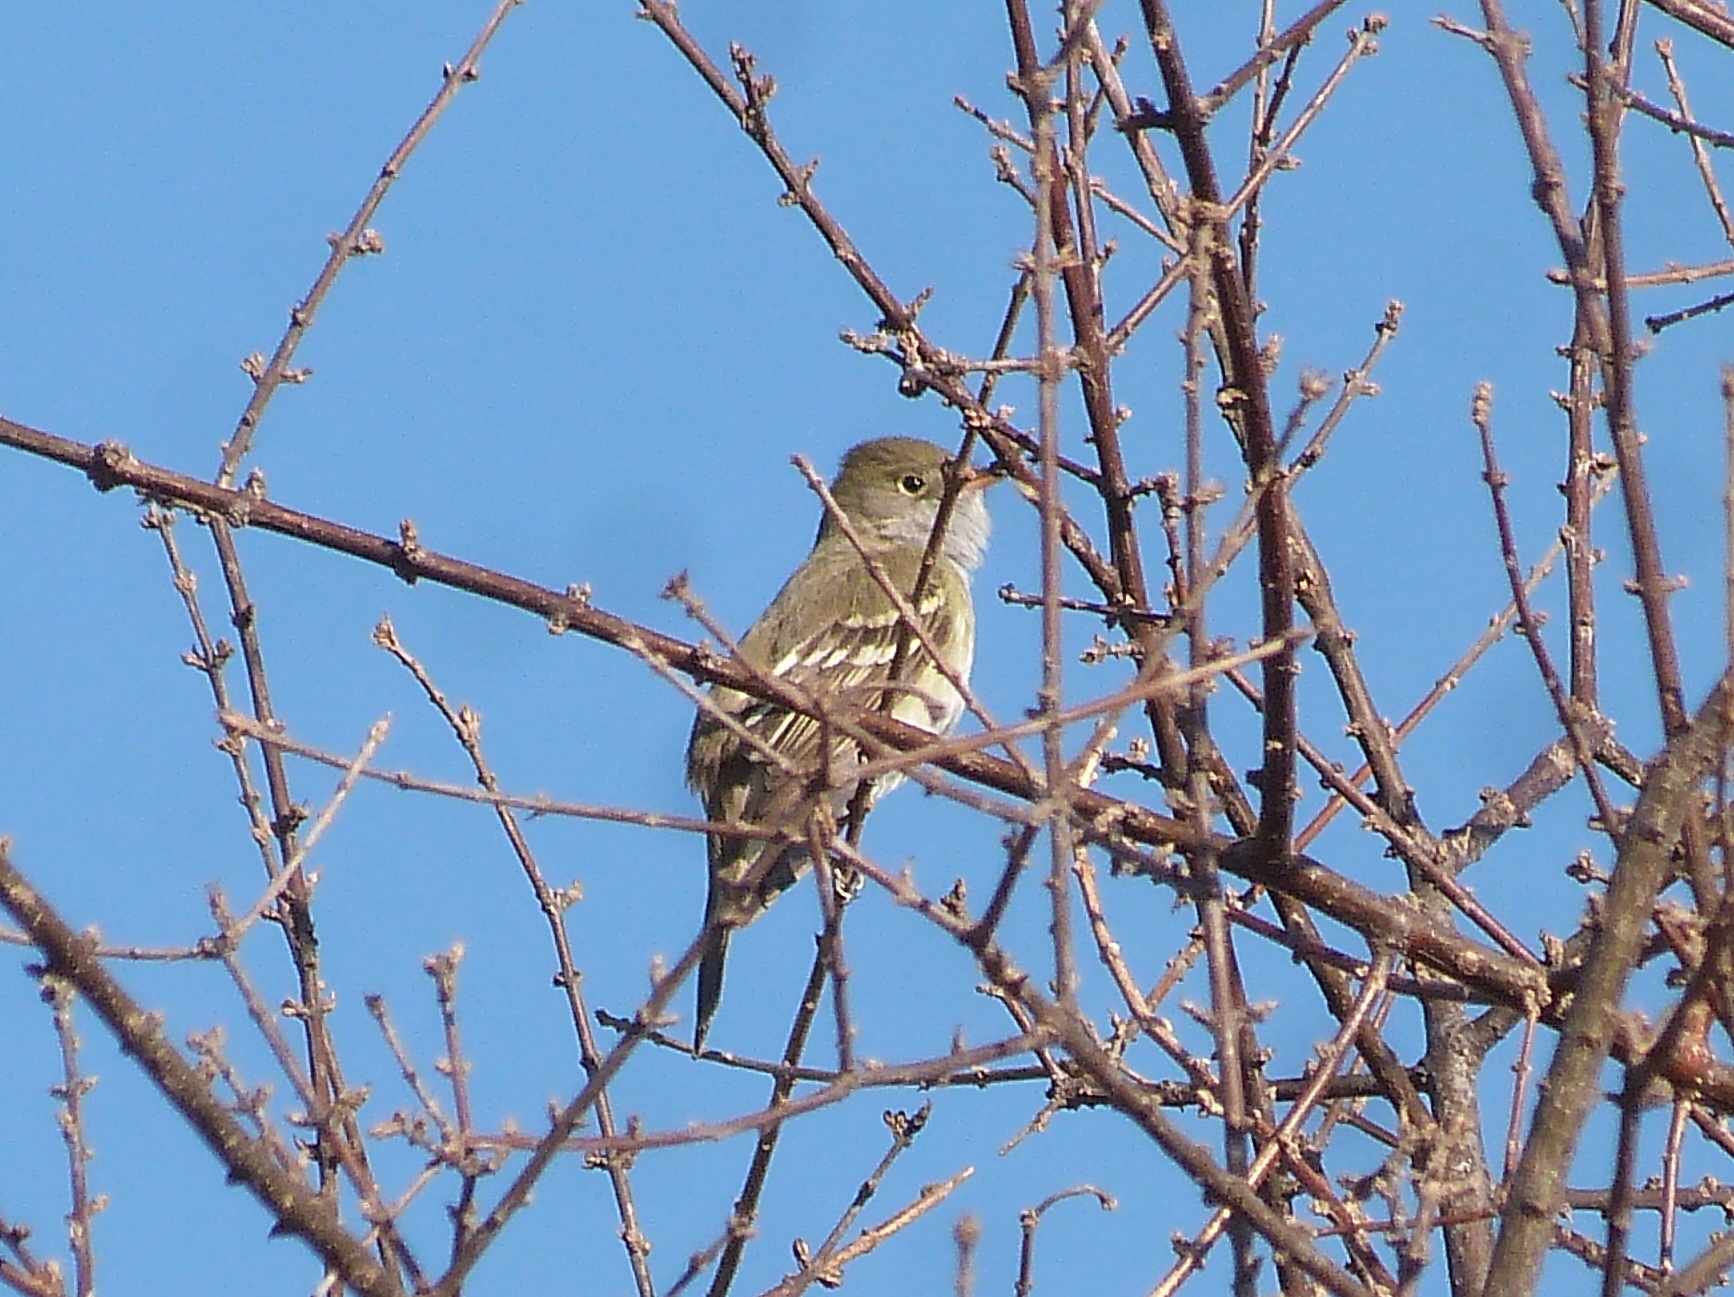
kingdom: Animalia
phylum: Chordata
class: Aves
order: Passeriformes
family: Tyrannidae
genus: Elaenia
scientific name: Elaenia parvirostris
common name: Small-billed elaenia
